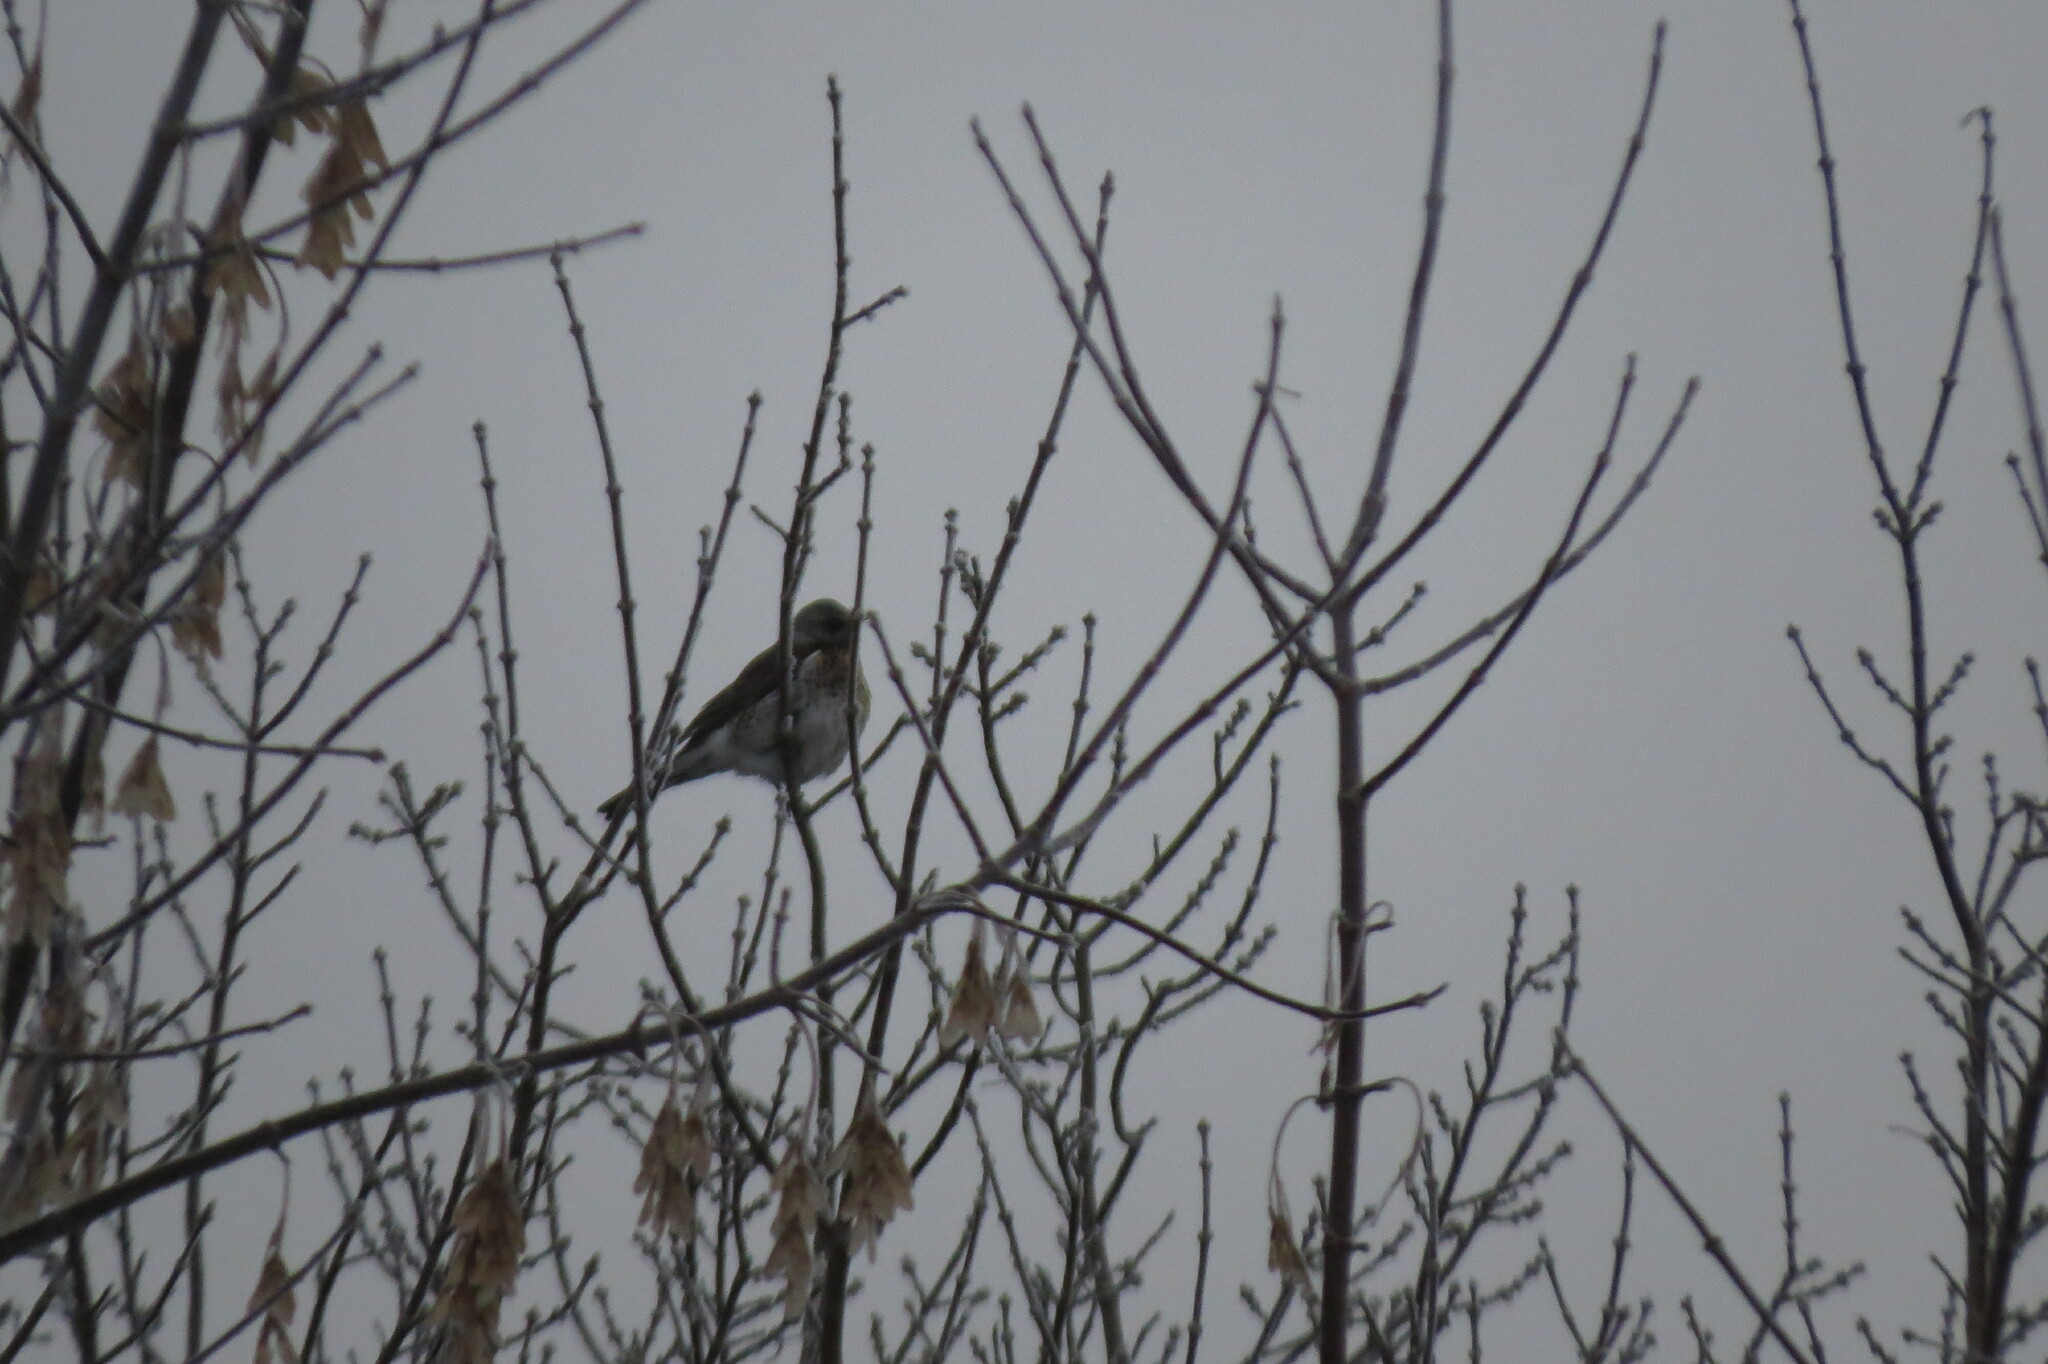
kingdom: Animalia
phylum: Chordata
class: Aves
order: Passeriformes
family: Turdidae
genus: Turdus
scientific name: Turdus pilaris
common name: Fieldfare
